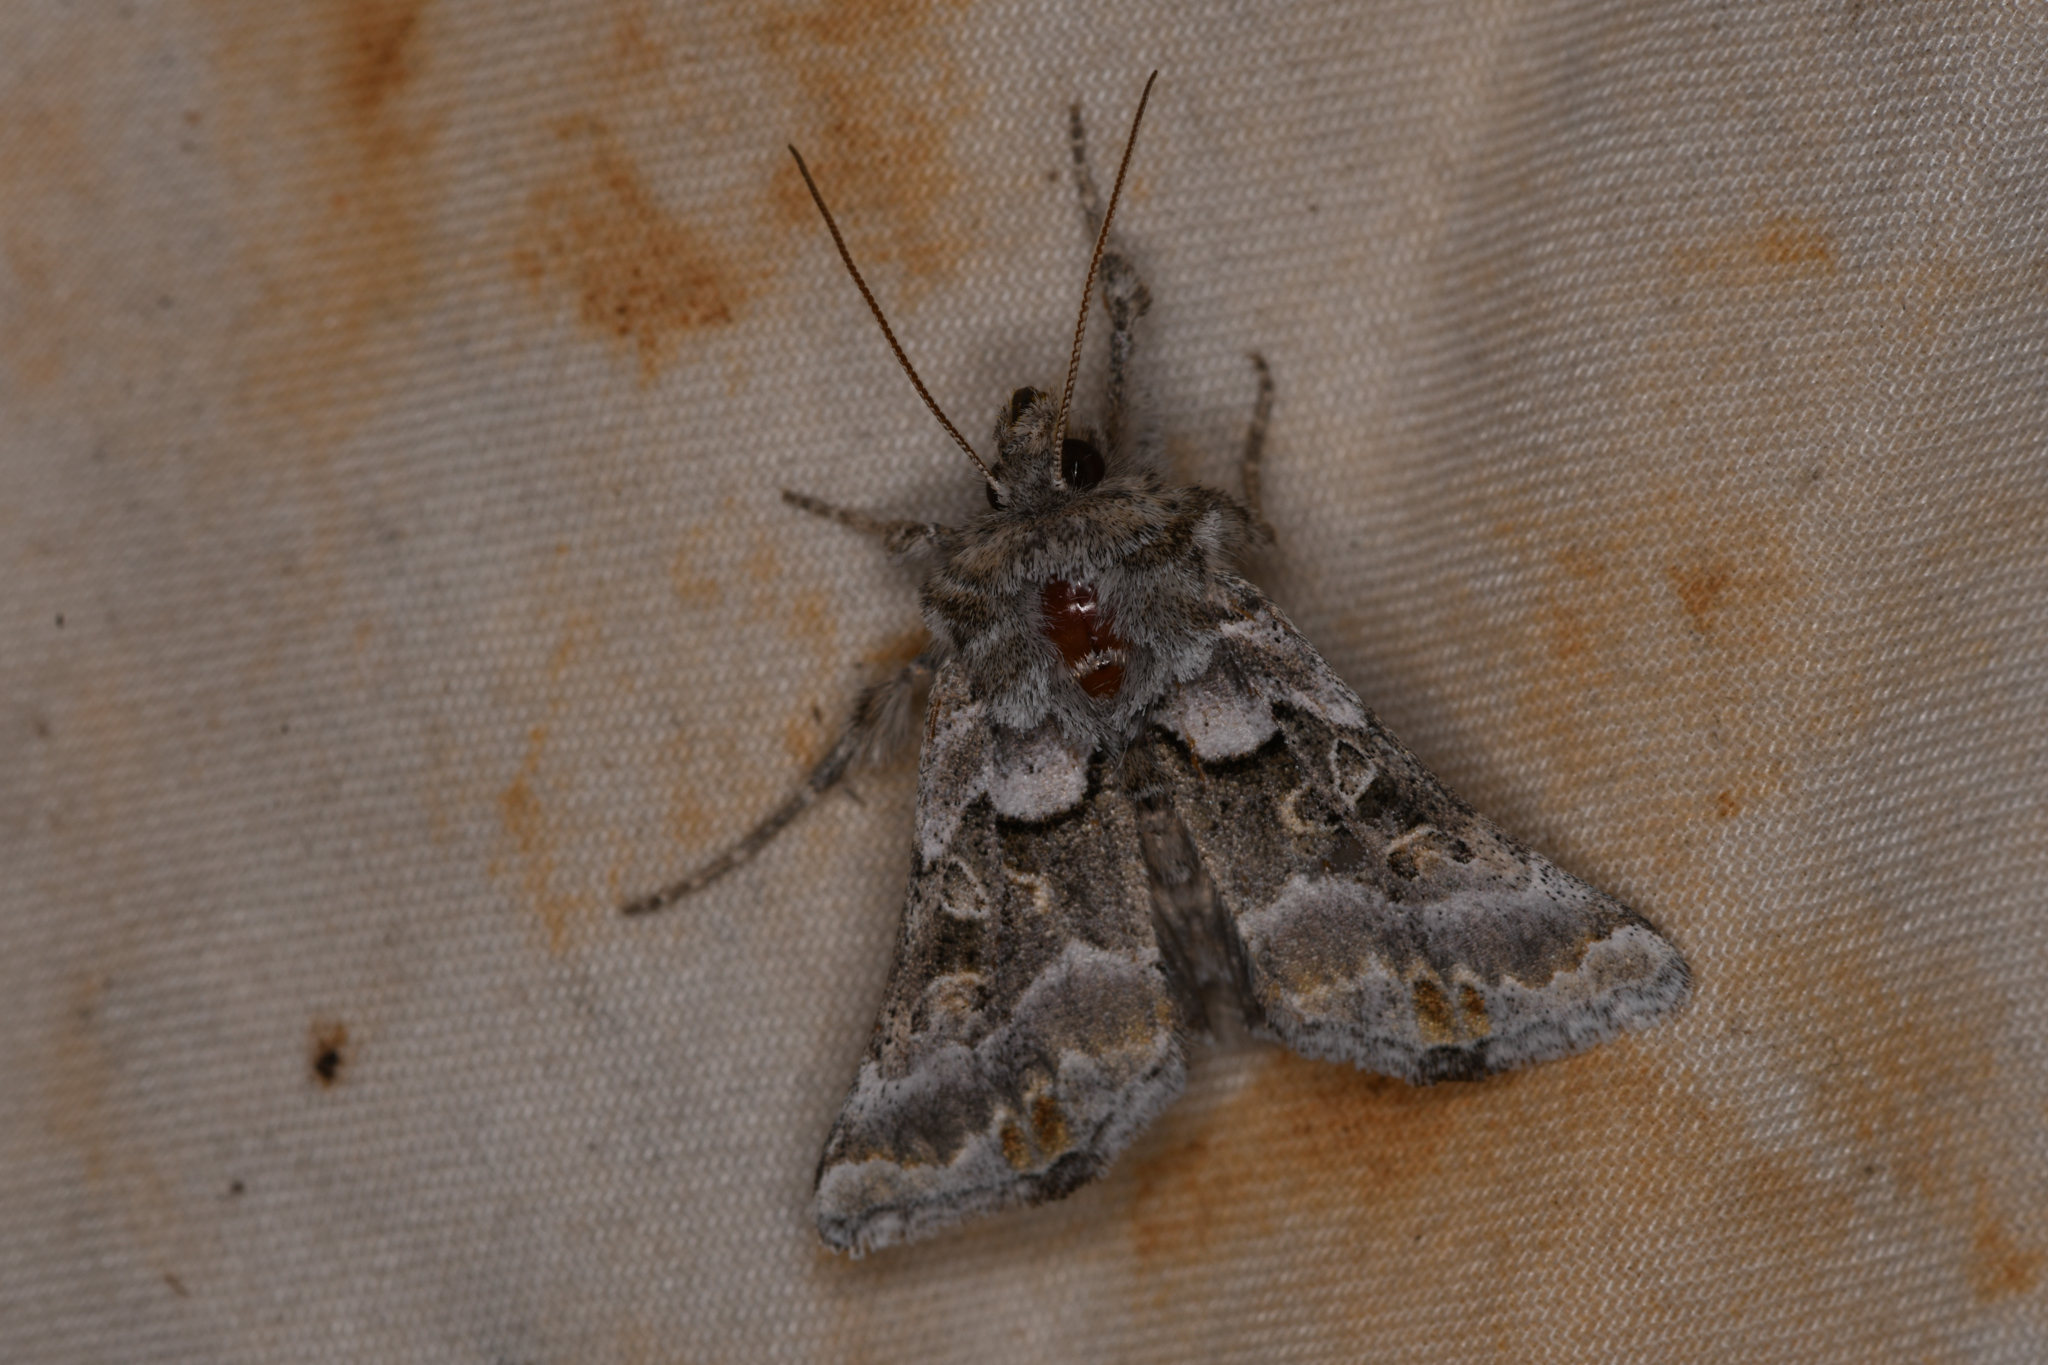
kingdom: Animalia
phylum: Arthropoda
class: Insecta
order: Lepidoptera
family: Noctuidae
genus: Euchalcia
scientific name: Euchalcia albavitta
